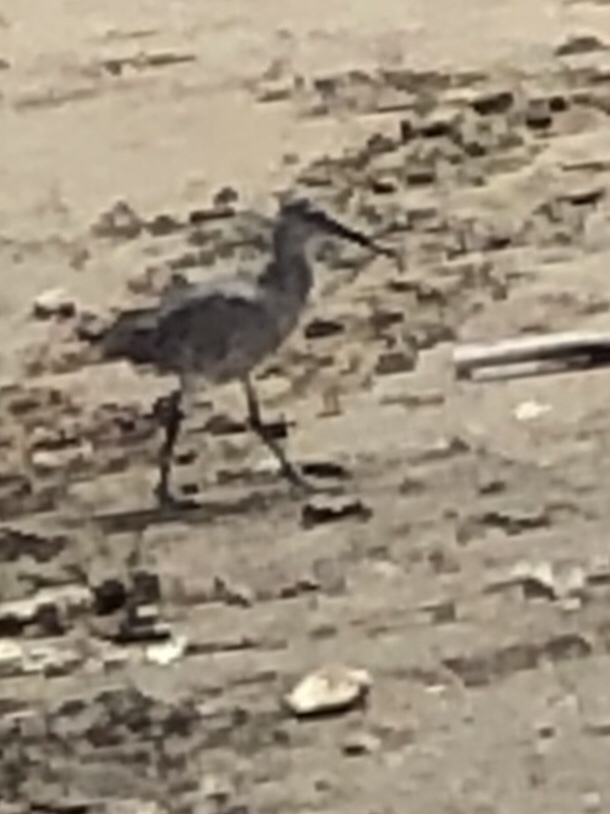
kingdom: Animalia
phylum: Chordata
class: Aves
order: Charadriiformes
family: Scolopacidae
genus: Tringa
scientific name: Tringa semipalmata
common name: Willet
